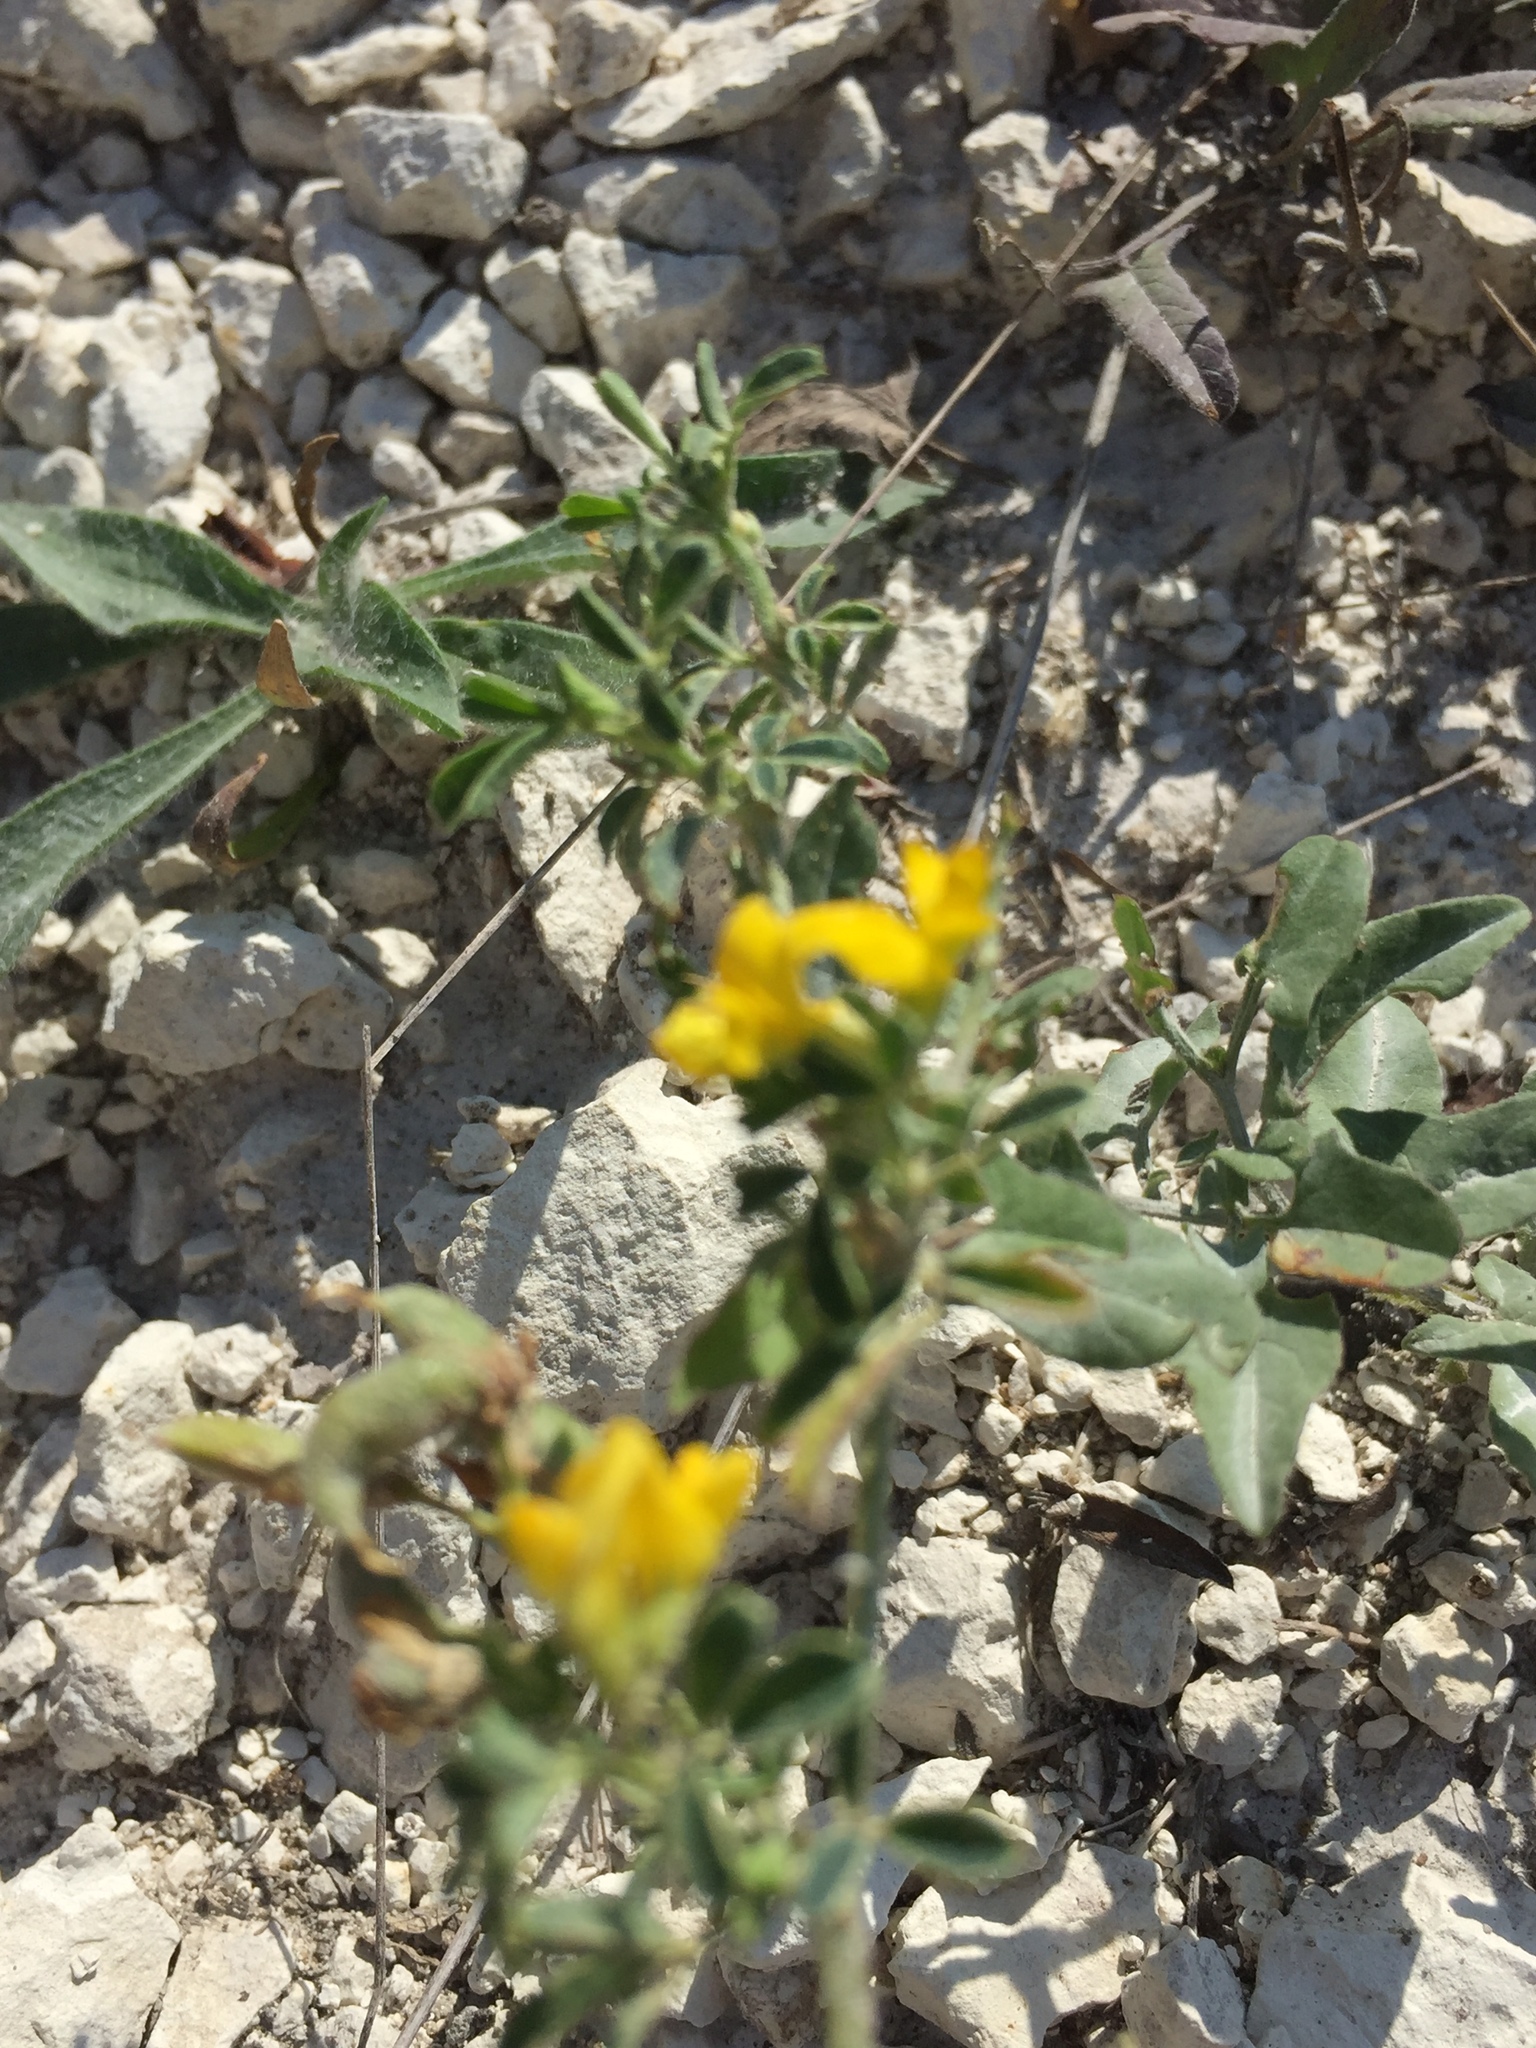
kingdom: Plantae
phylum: Tracheophyta
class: Magnoliopsida
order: Fabales
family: Fabaceae
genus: Medicago
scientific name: Medicago falcata
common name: Sickle medick
